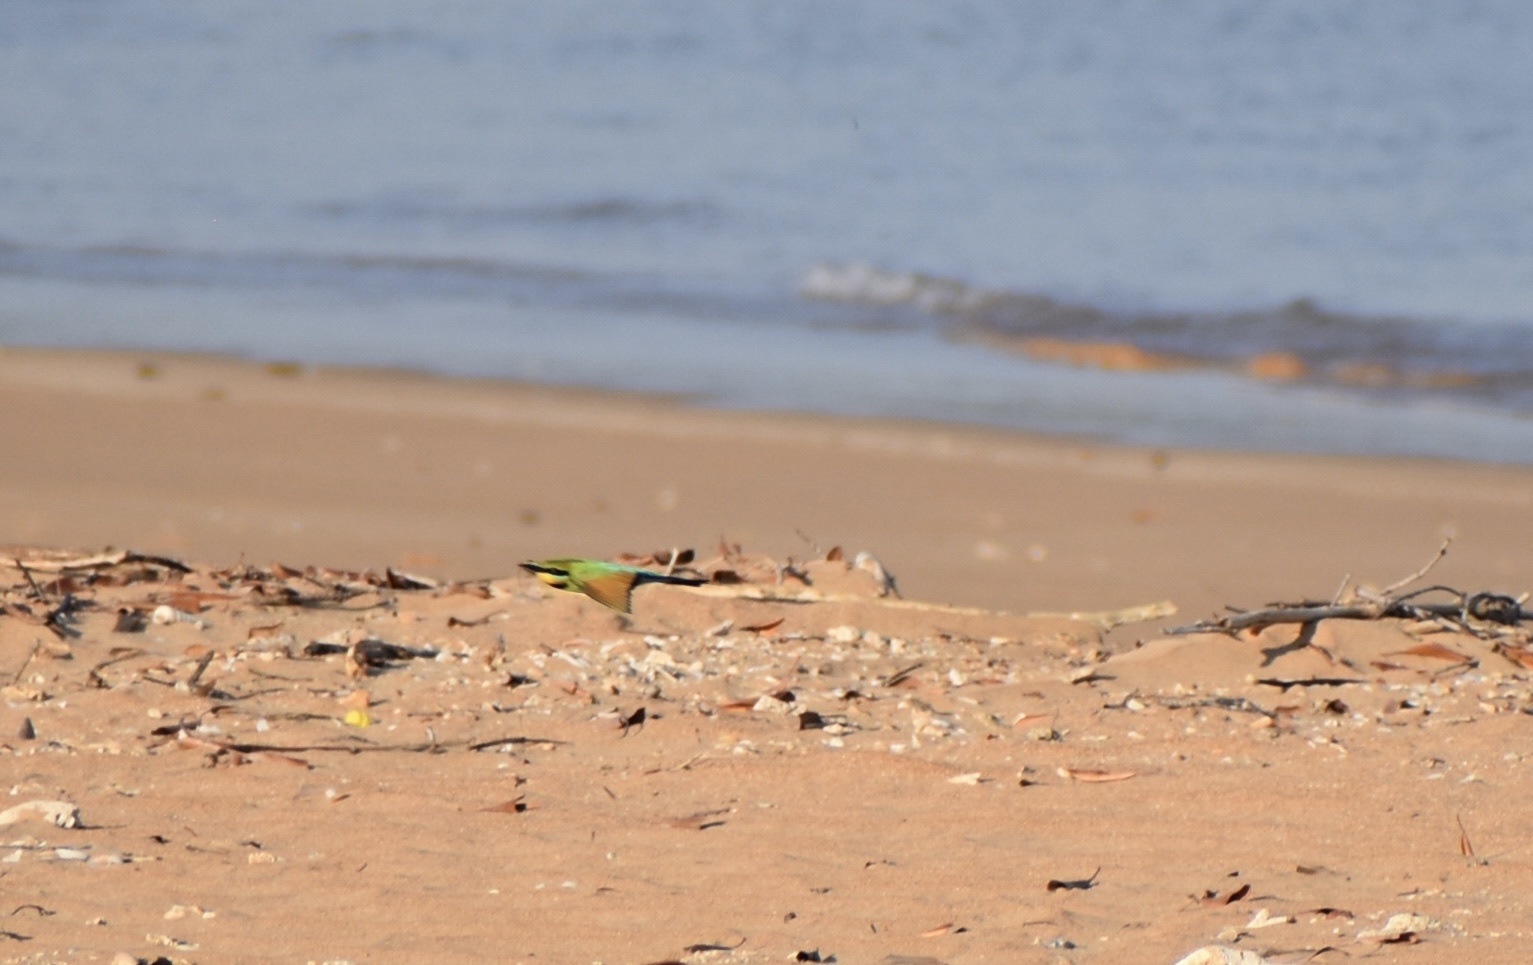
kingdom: Animalia
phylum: Chordata
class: Aves
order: Coraciiformes
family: Meropidae
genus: Merops
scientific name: Merops ornatus
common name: Rainbow bee-eater
